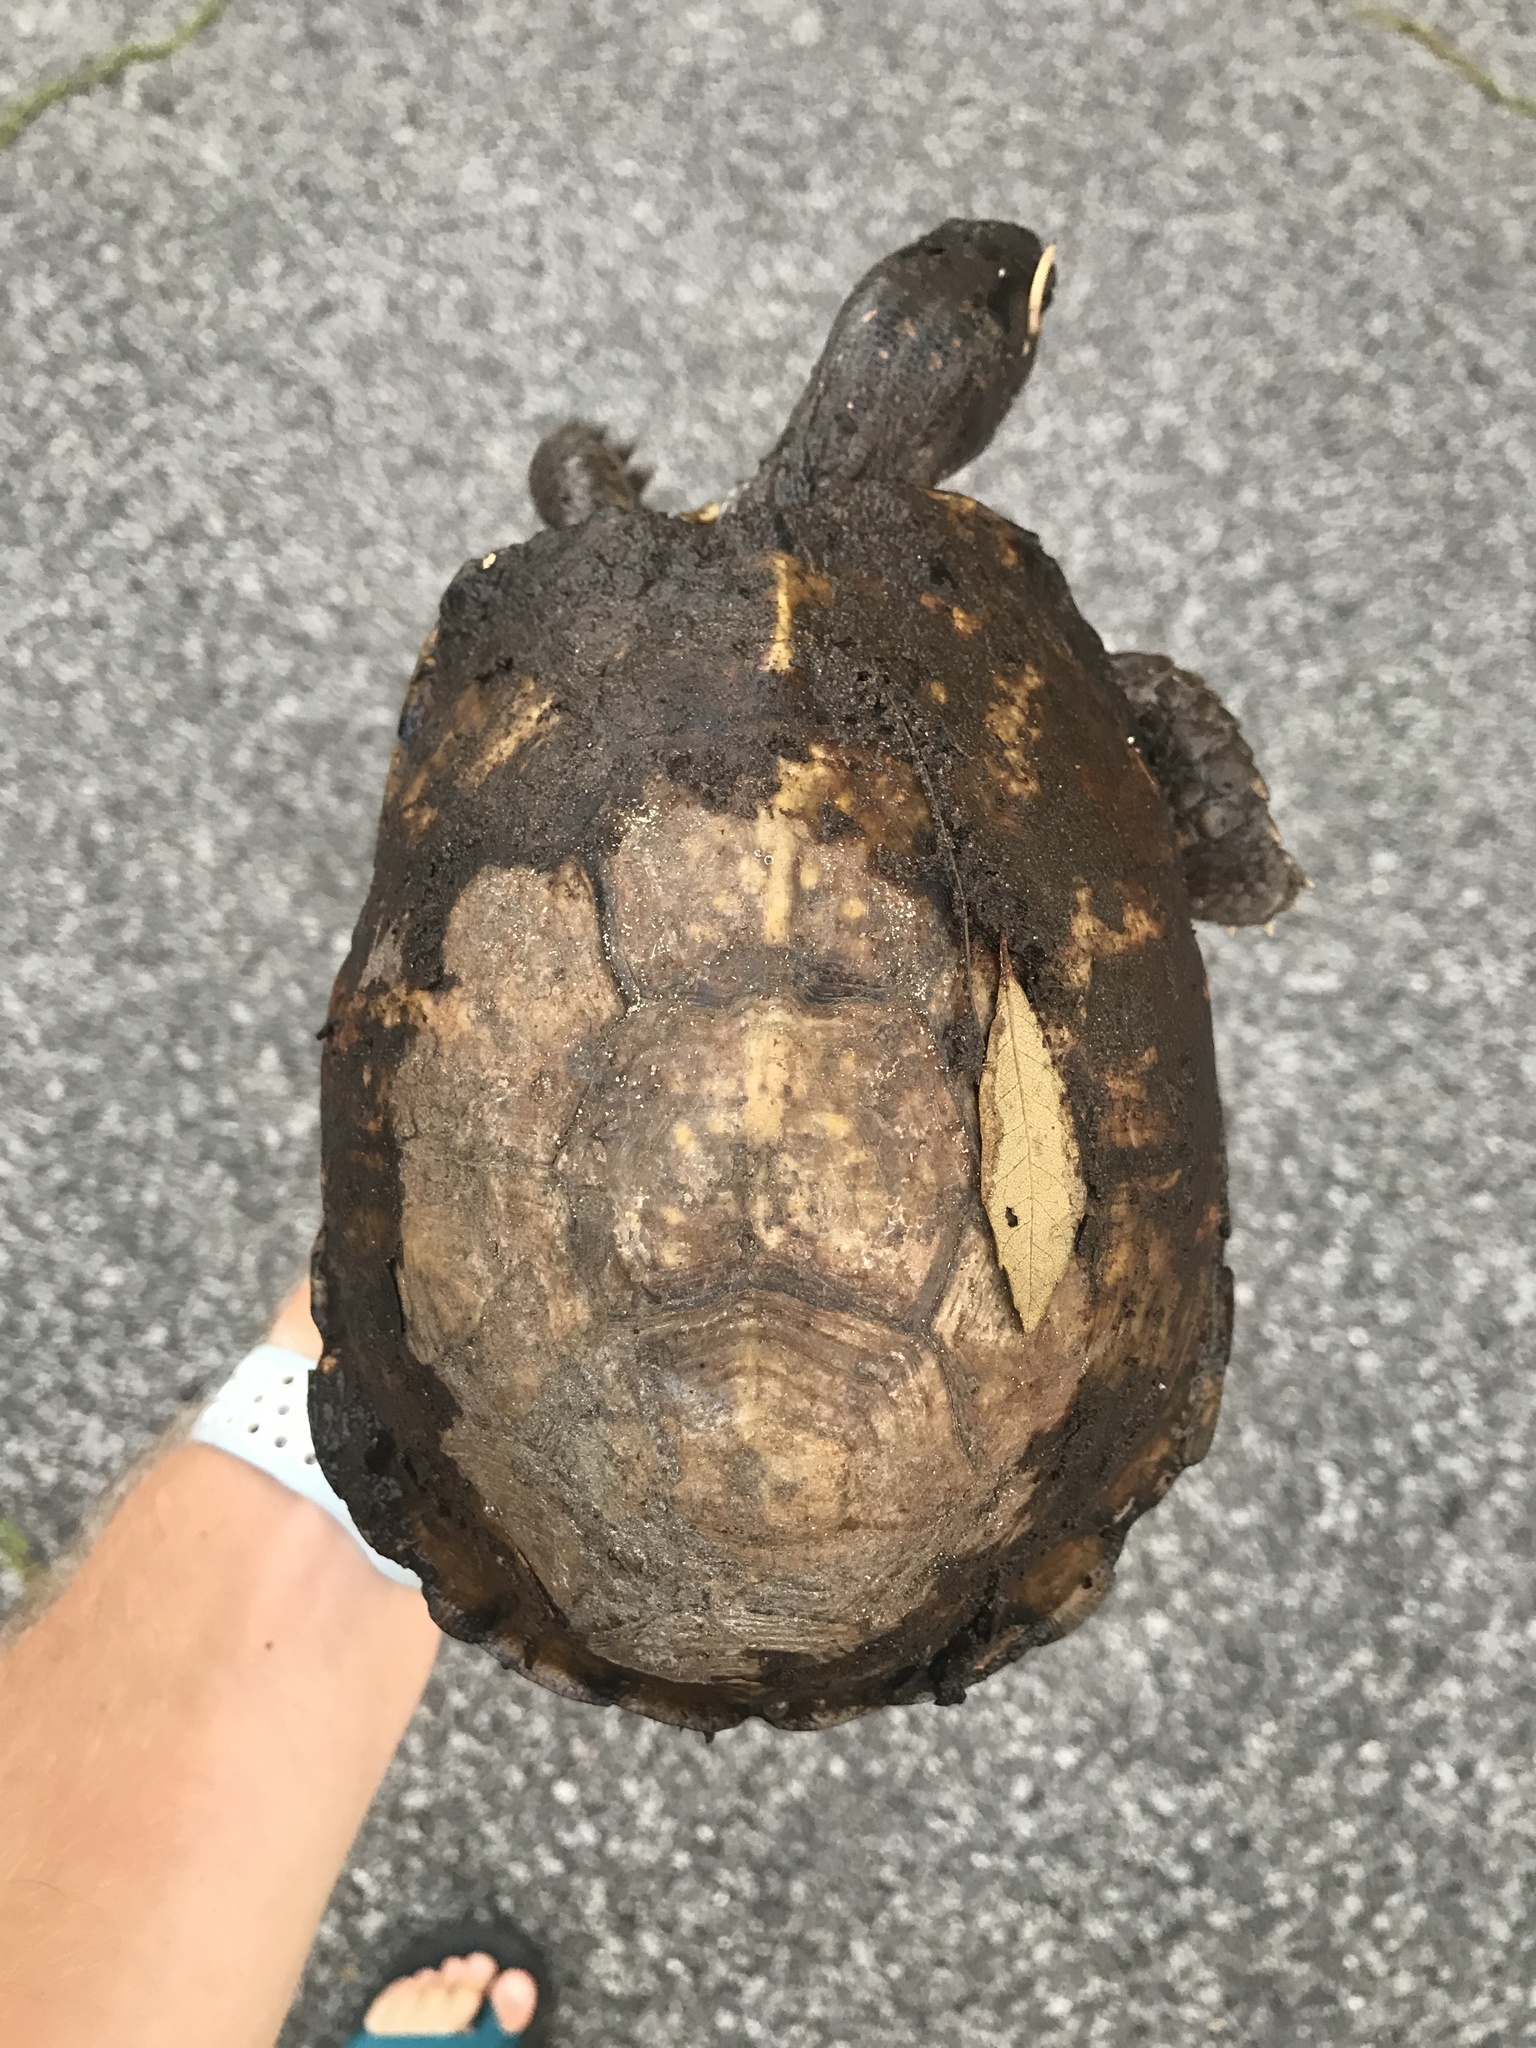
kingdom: Animalia
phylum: Chordata
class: Testudines
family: Emydidae
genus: Terrapene
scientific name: Terrapene carolina
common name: Common box turtle
